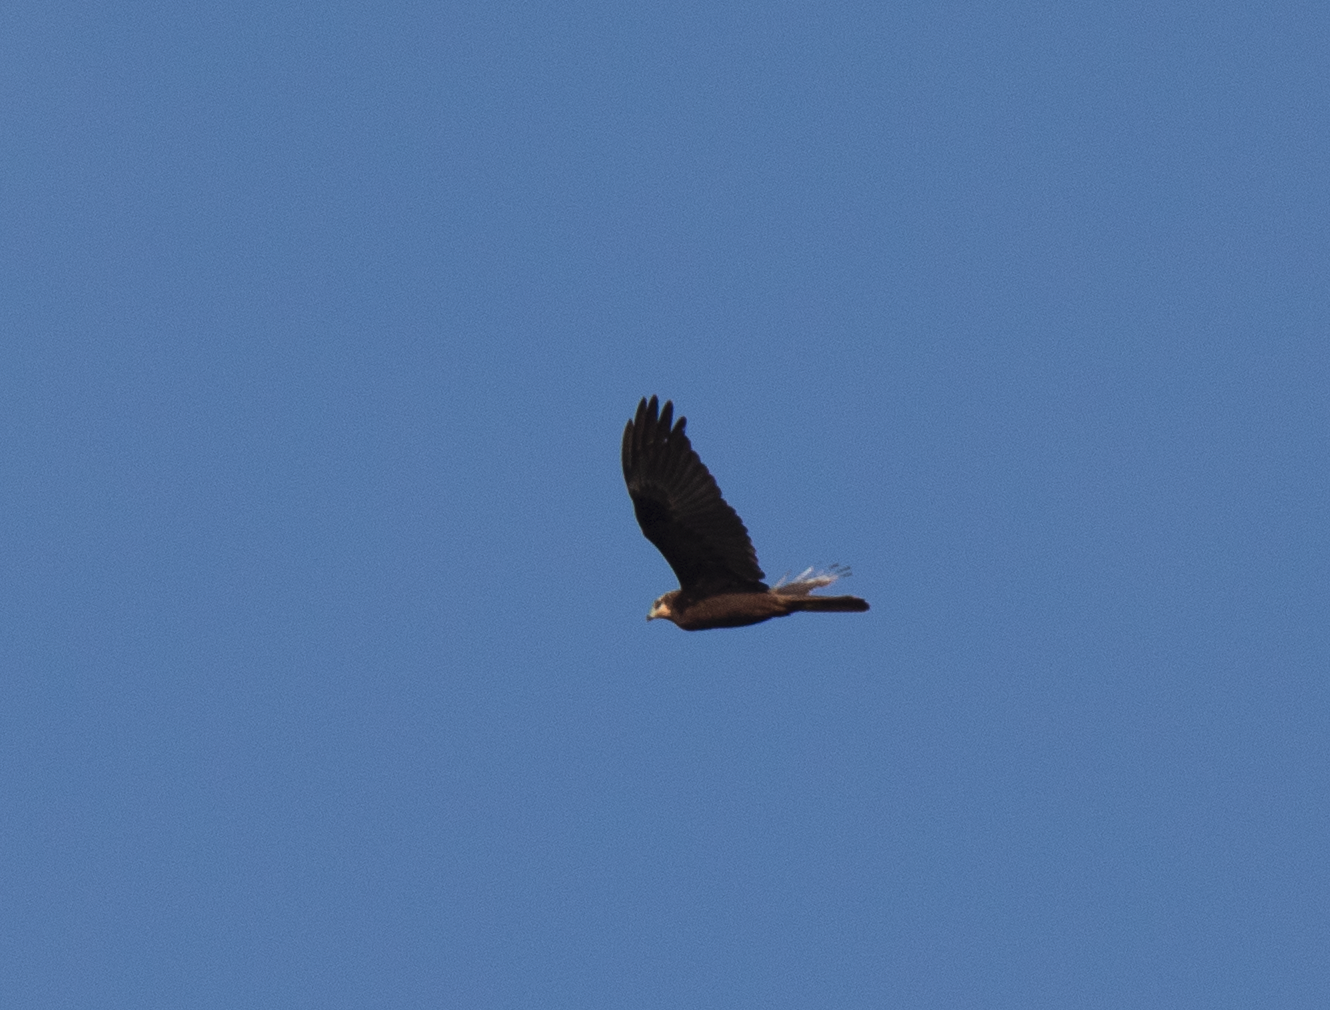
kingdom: Animalia
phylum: Chordata
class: Aves
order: Accipitriformes
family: Accipitridae
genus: Circus
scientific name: Circus aeruginosus
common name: Western marsh harrier
